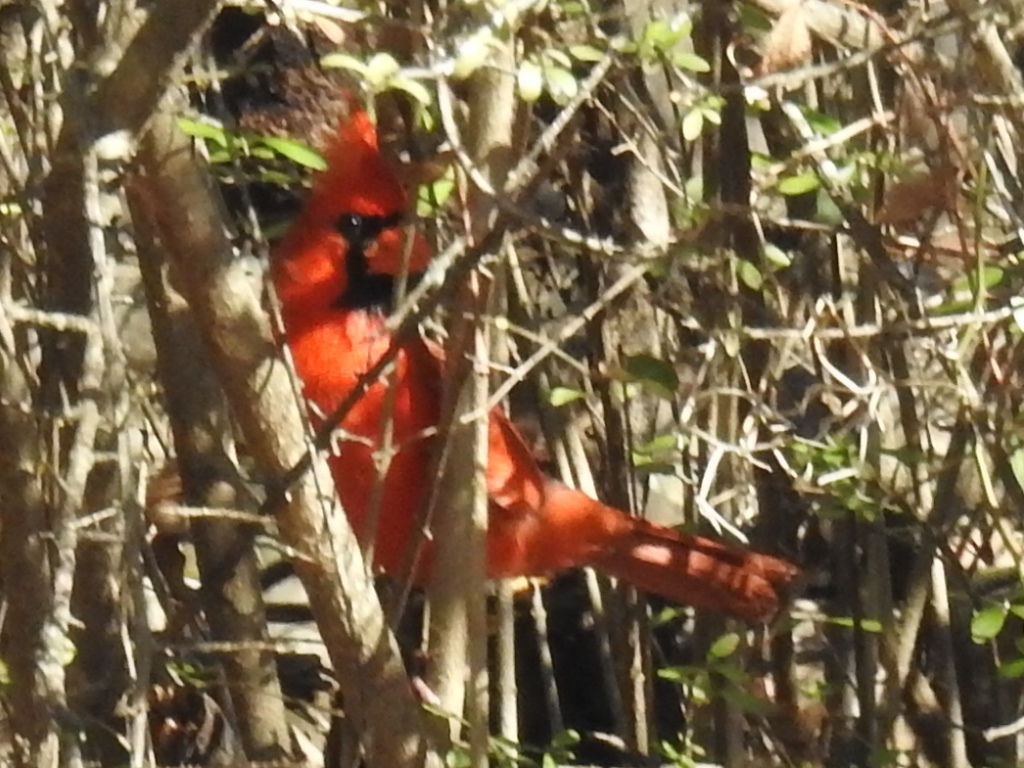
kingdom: Animalia
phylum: Chordata
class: Aves
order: Passeriformes
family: Cardinalidae
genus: Cardinalis
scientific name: Cardinalis cardinalis
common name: Northern cardinal
